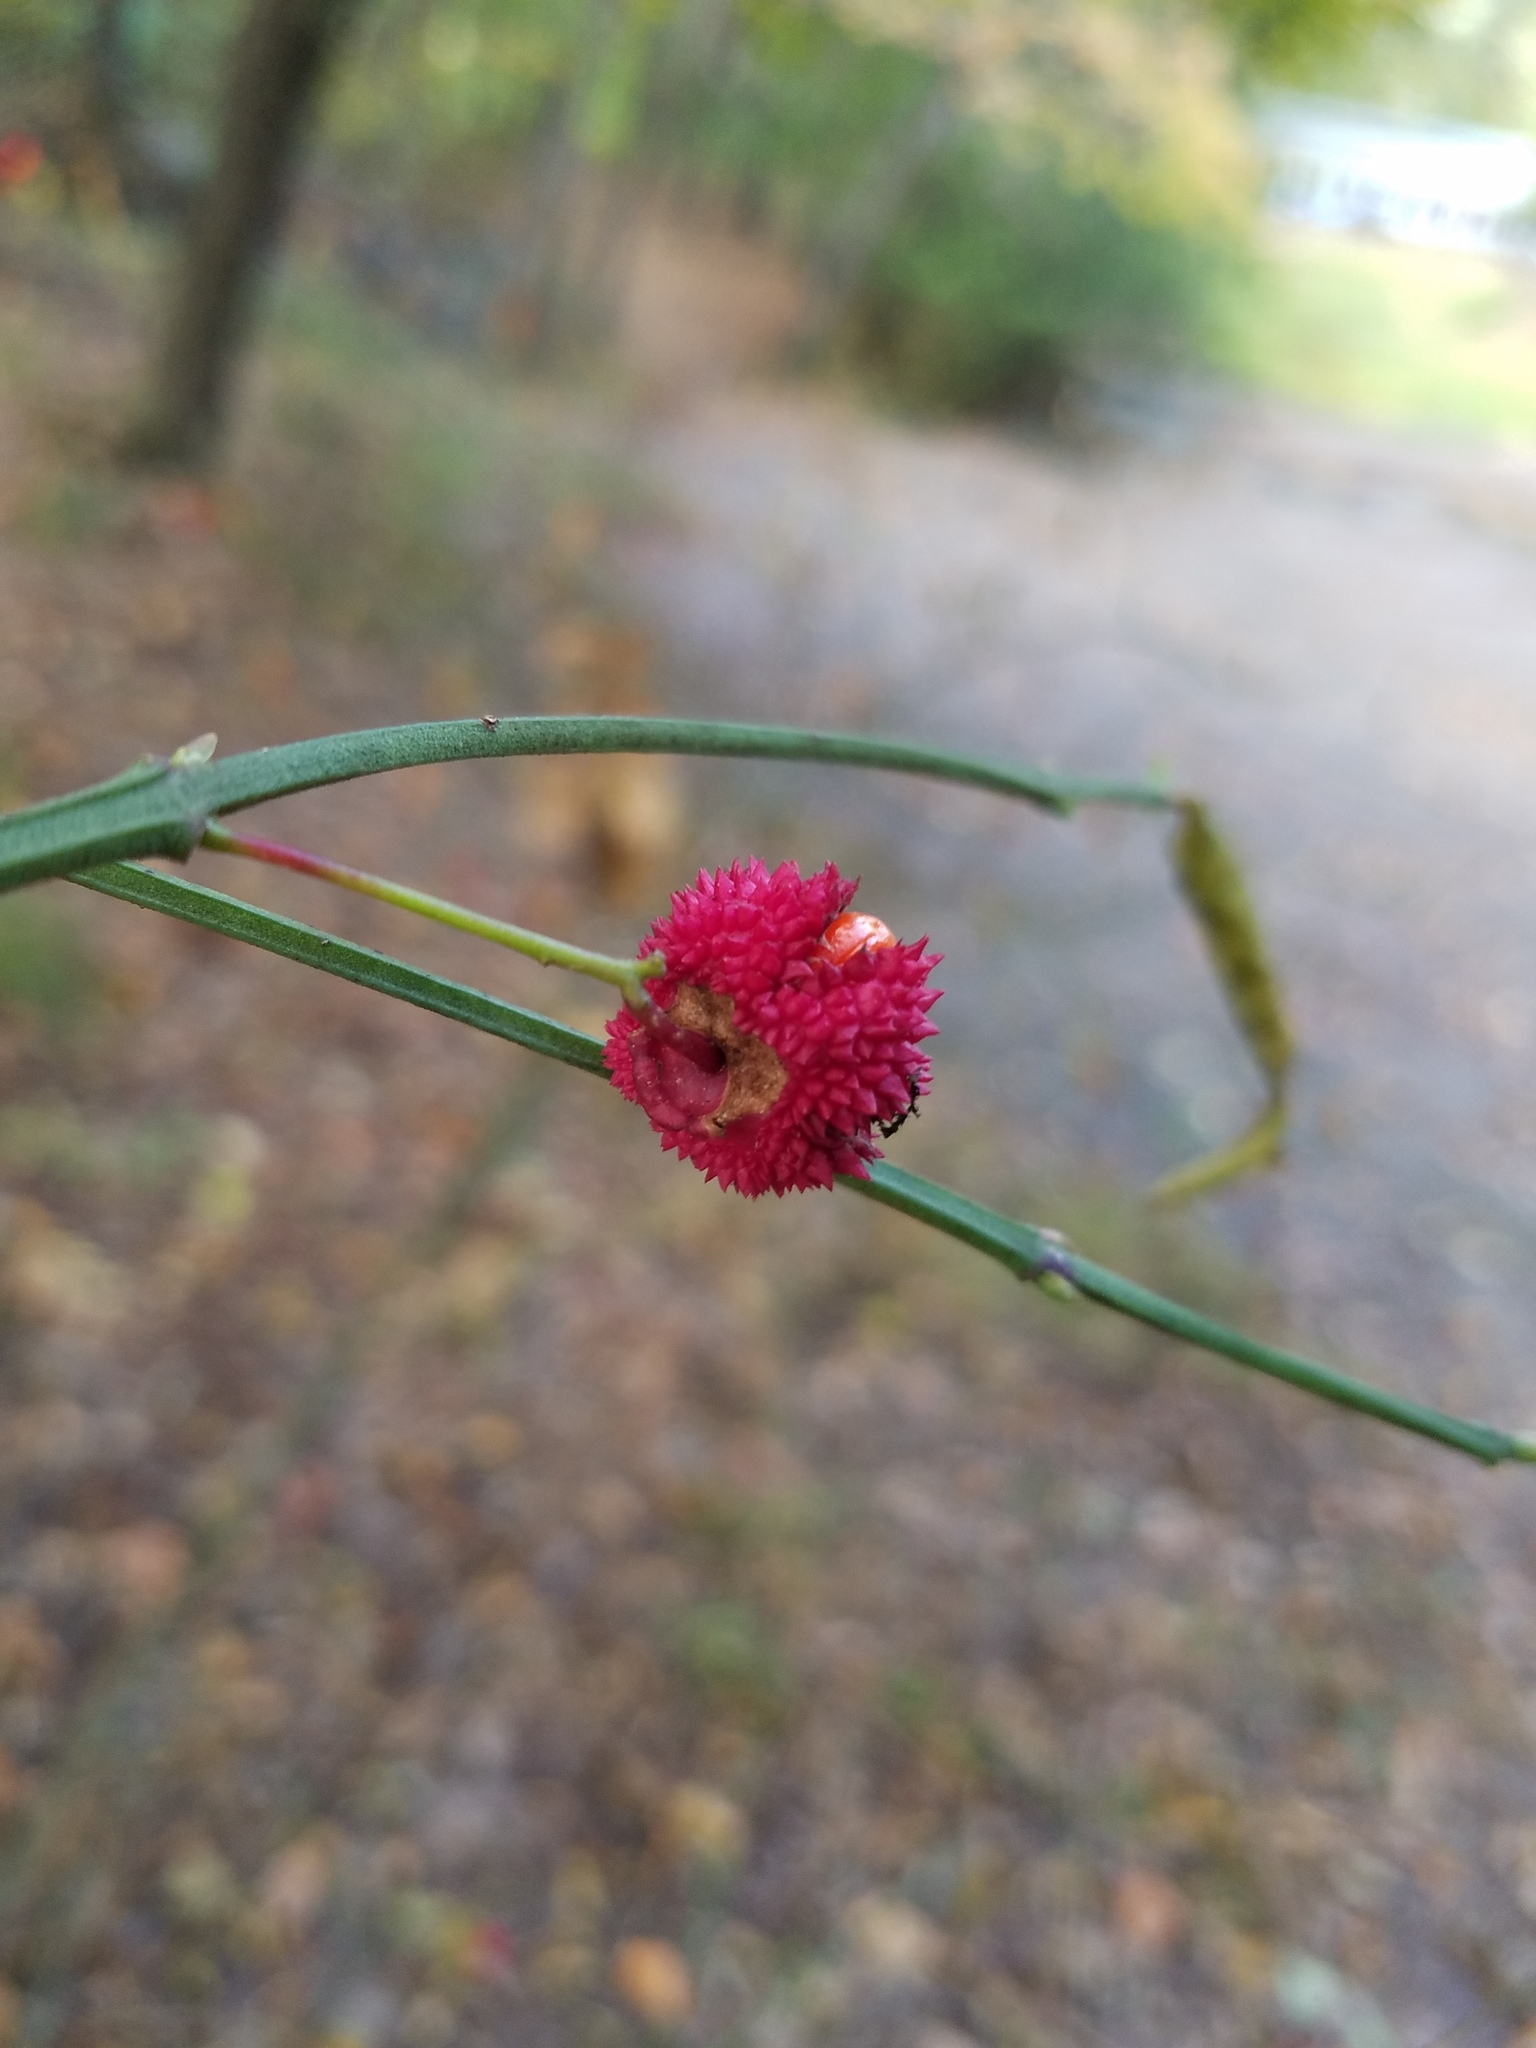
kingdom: Plantae
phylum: Tracheophyta
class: Magnoliopsida
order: Celastrales
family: Celastraceae
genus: Euonymus
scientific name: Euonymus americanus
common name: Bursting-heart
